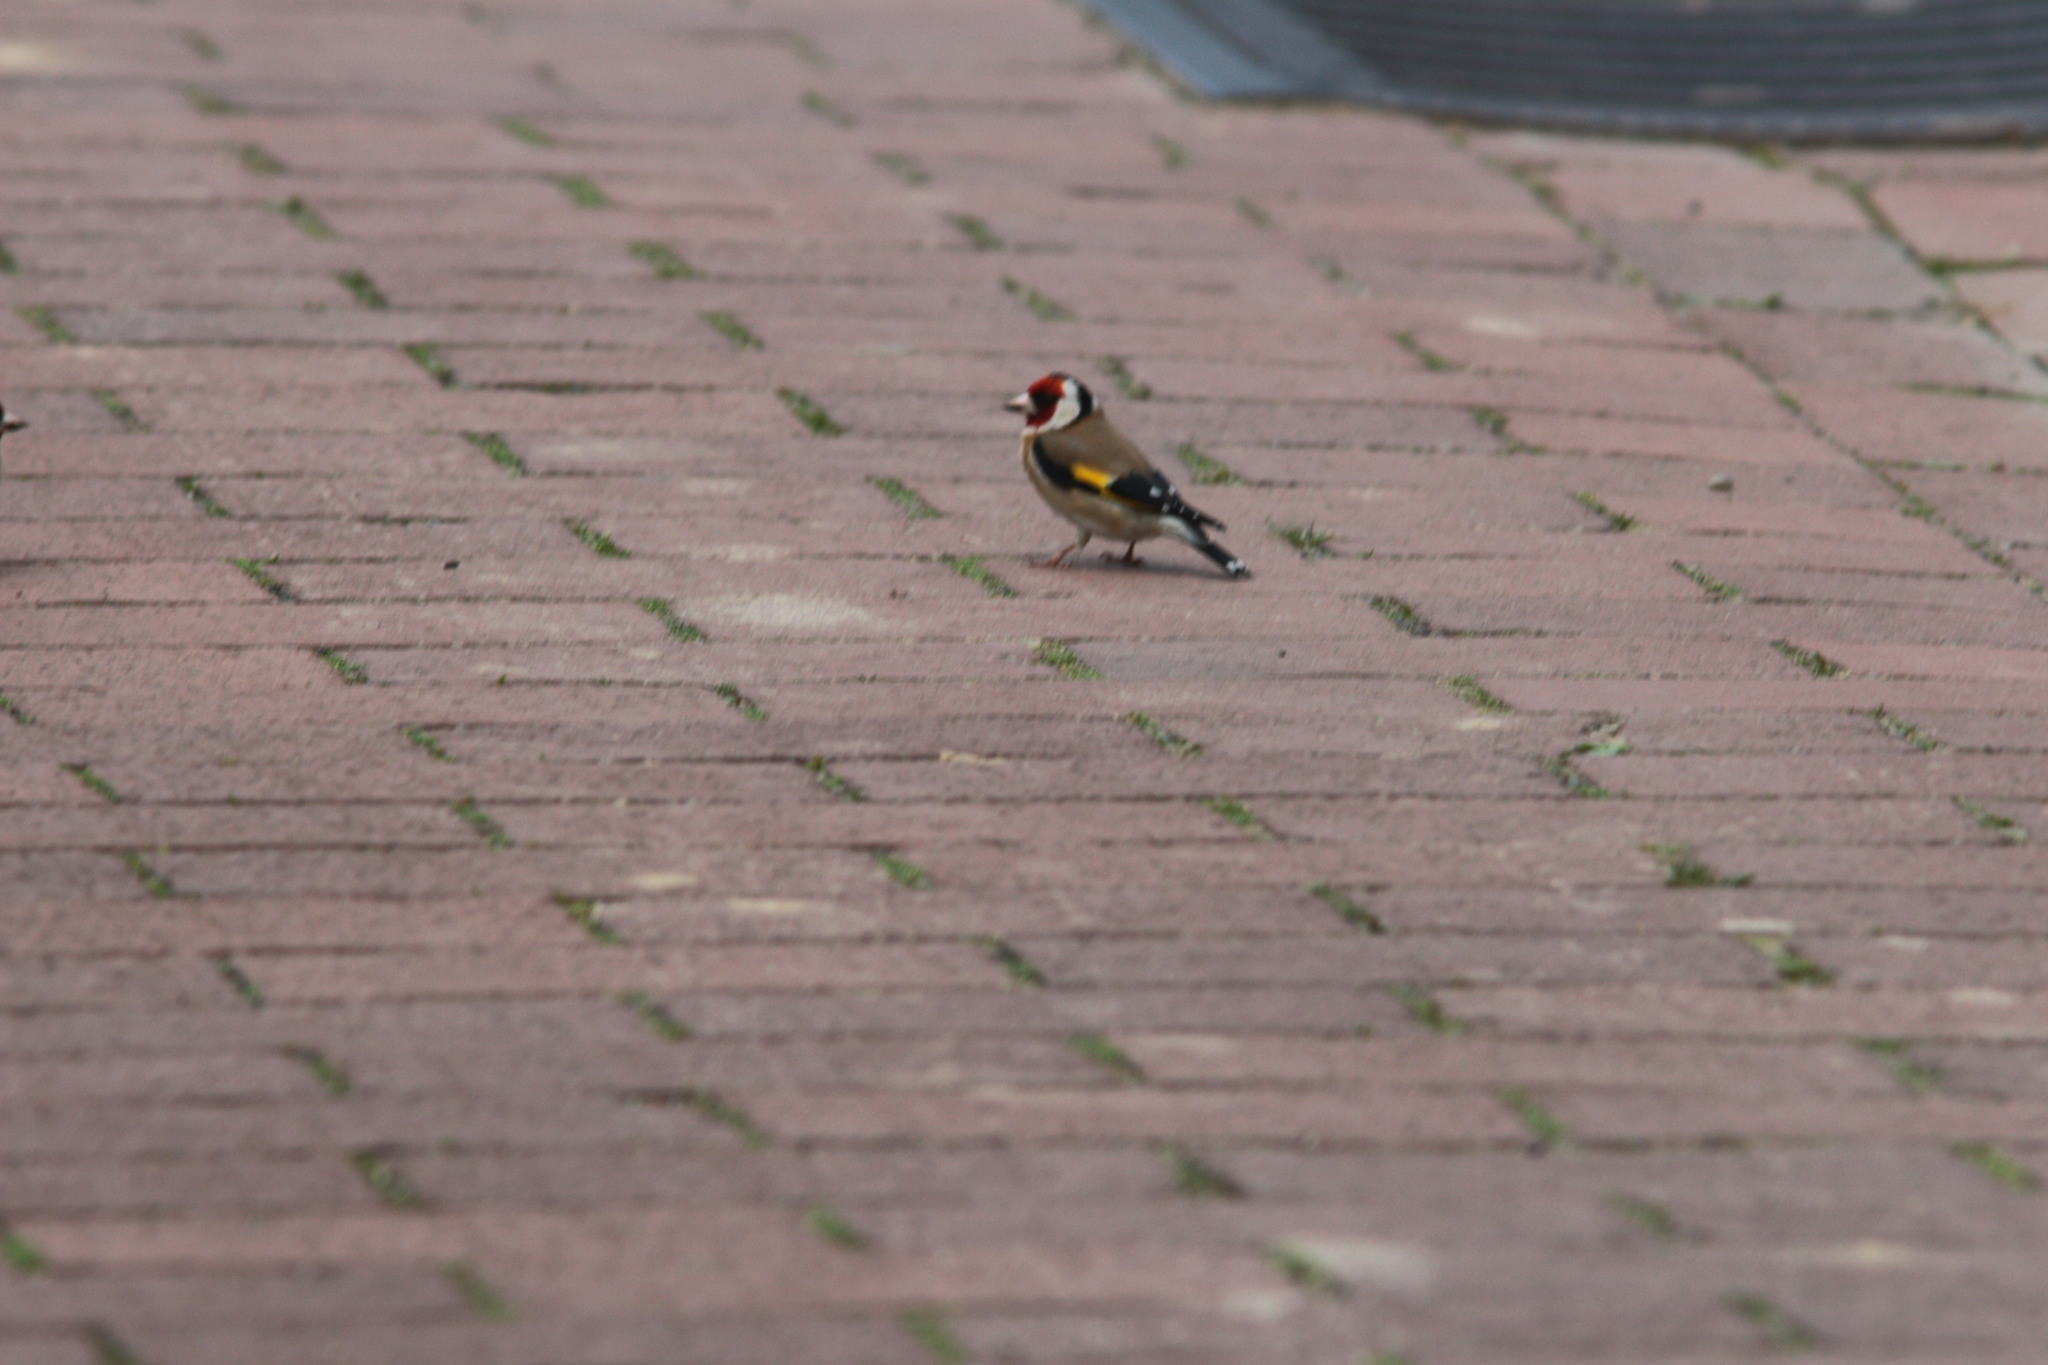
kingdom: Animalia
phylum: Chordata
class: Aves
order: Passeriformes
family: Fringillidae
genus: Carduelis
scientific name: Carduelis carduelis
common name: European goldfinch
